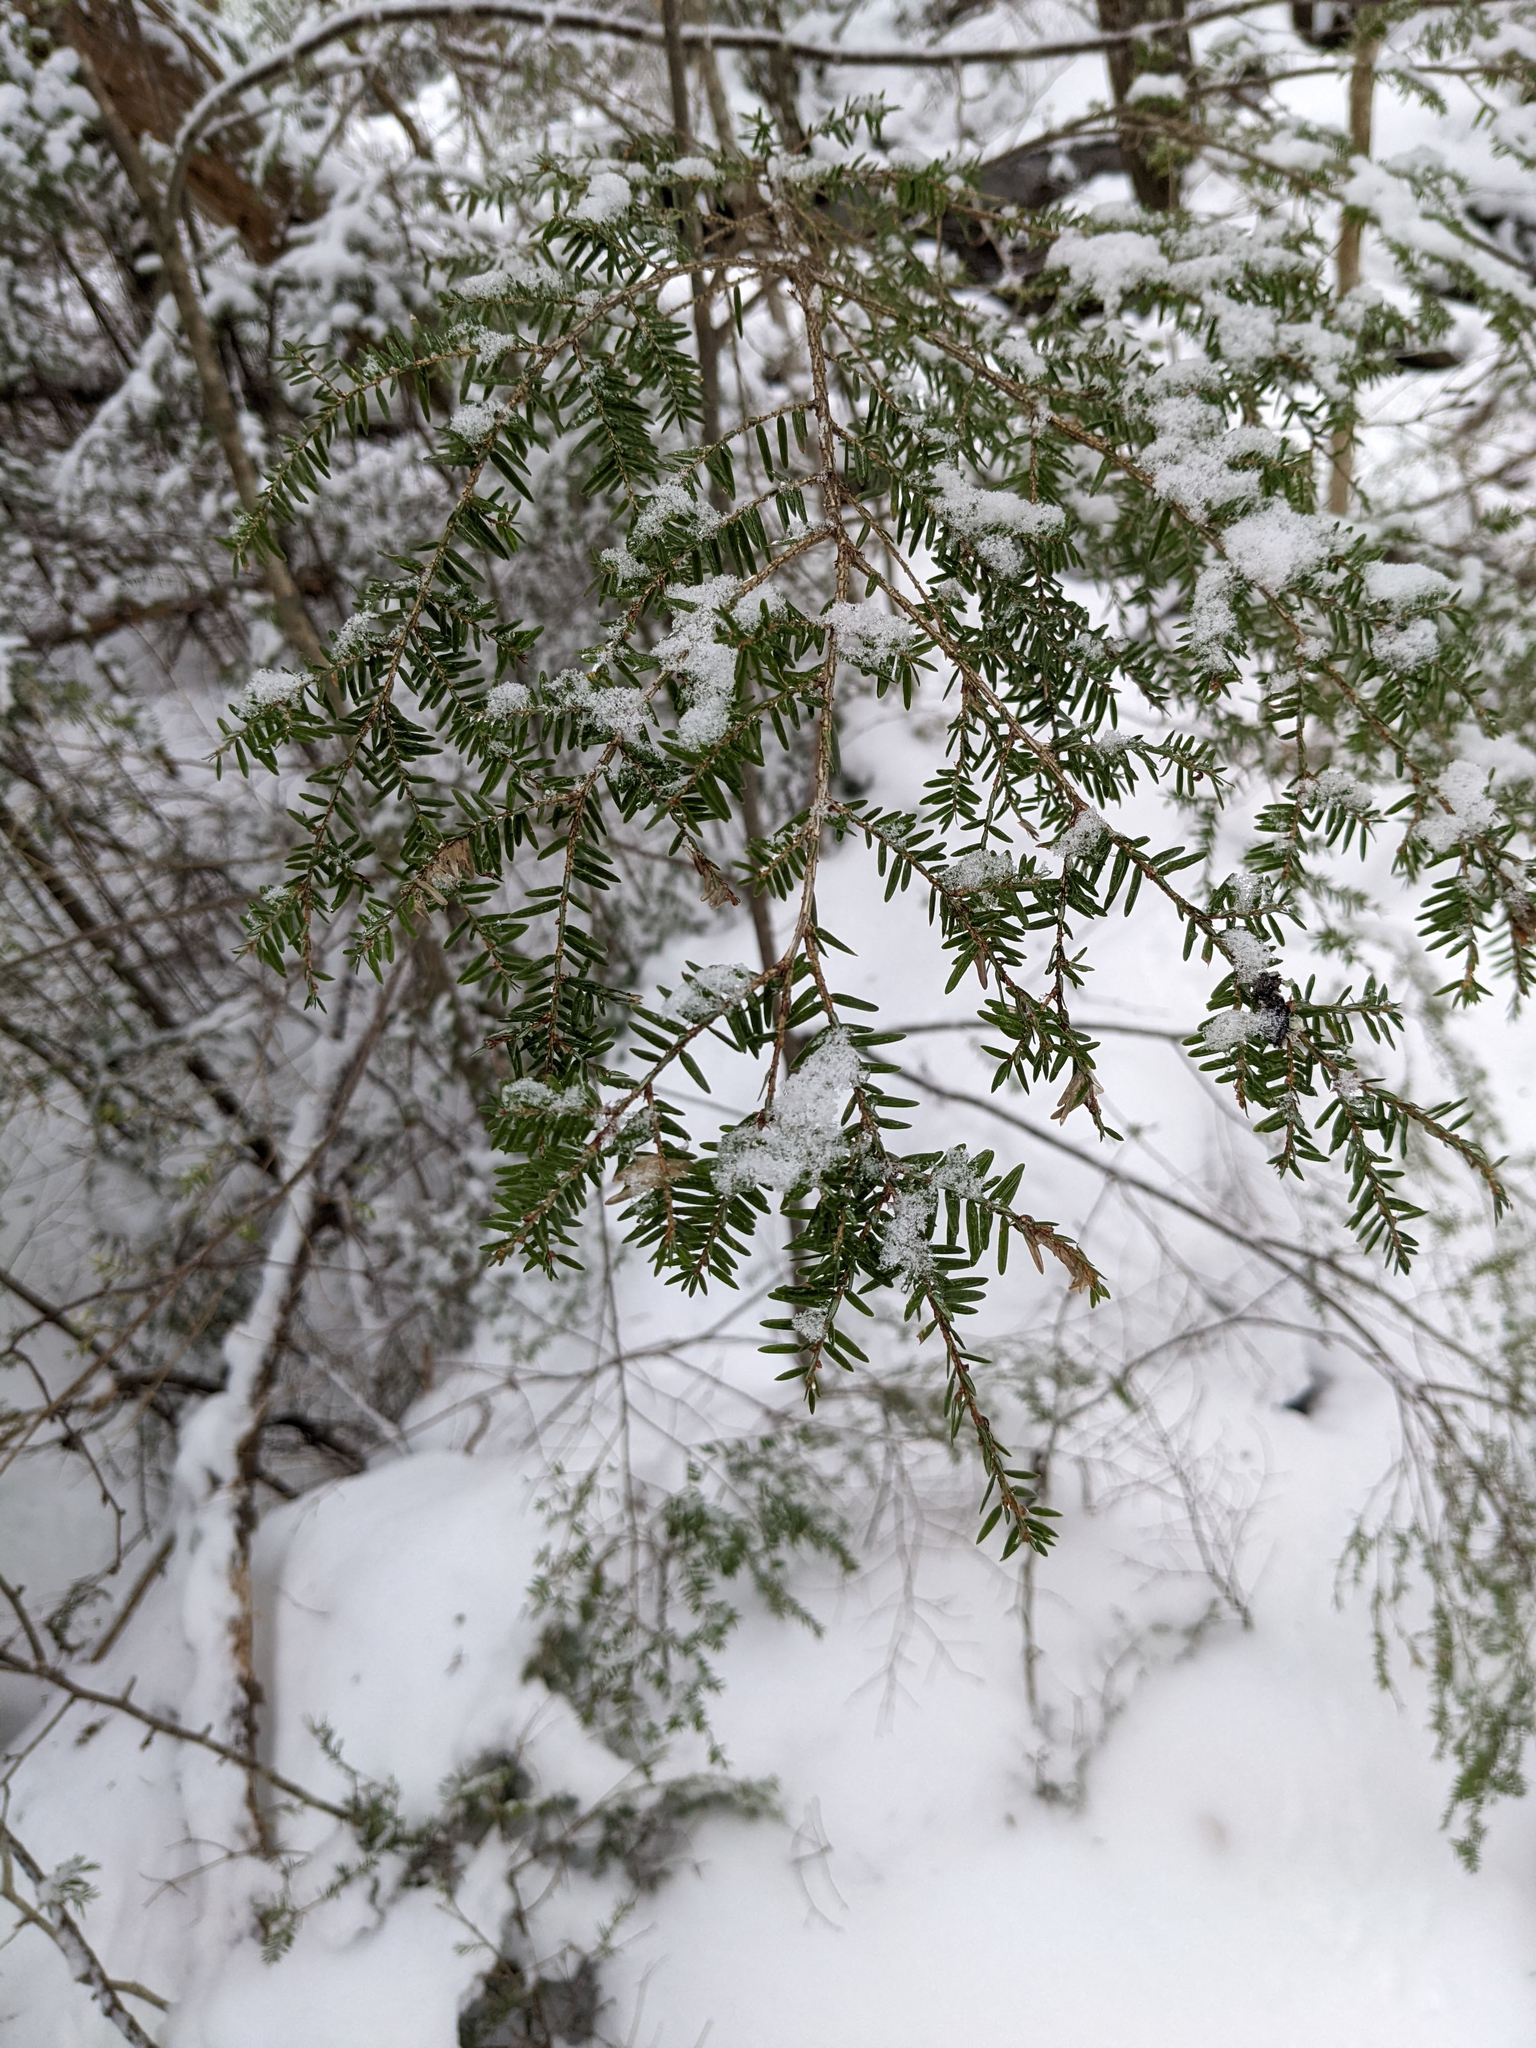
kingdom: Plantae
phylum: Tracheophyta
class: Pinopsida
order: Pinales
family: Pinaceae
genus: Tsuga
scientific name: Tsuga canadensis
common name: Eastern hemlock
